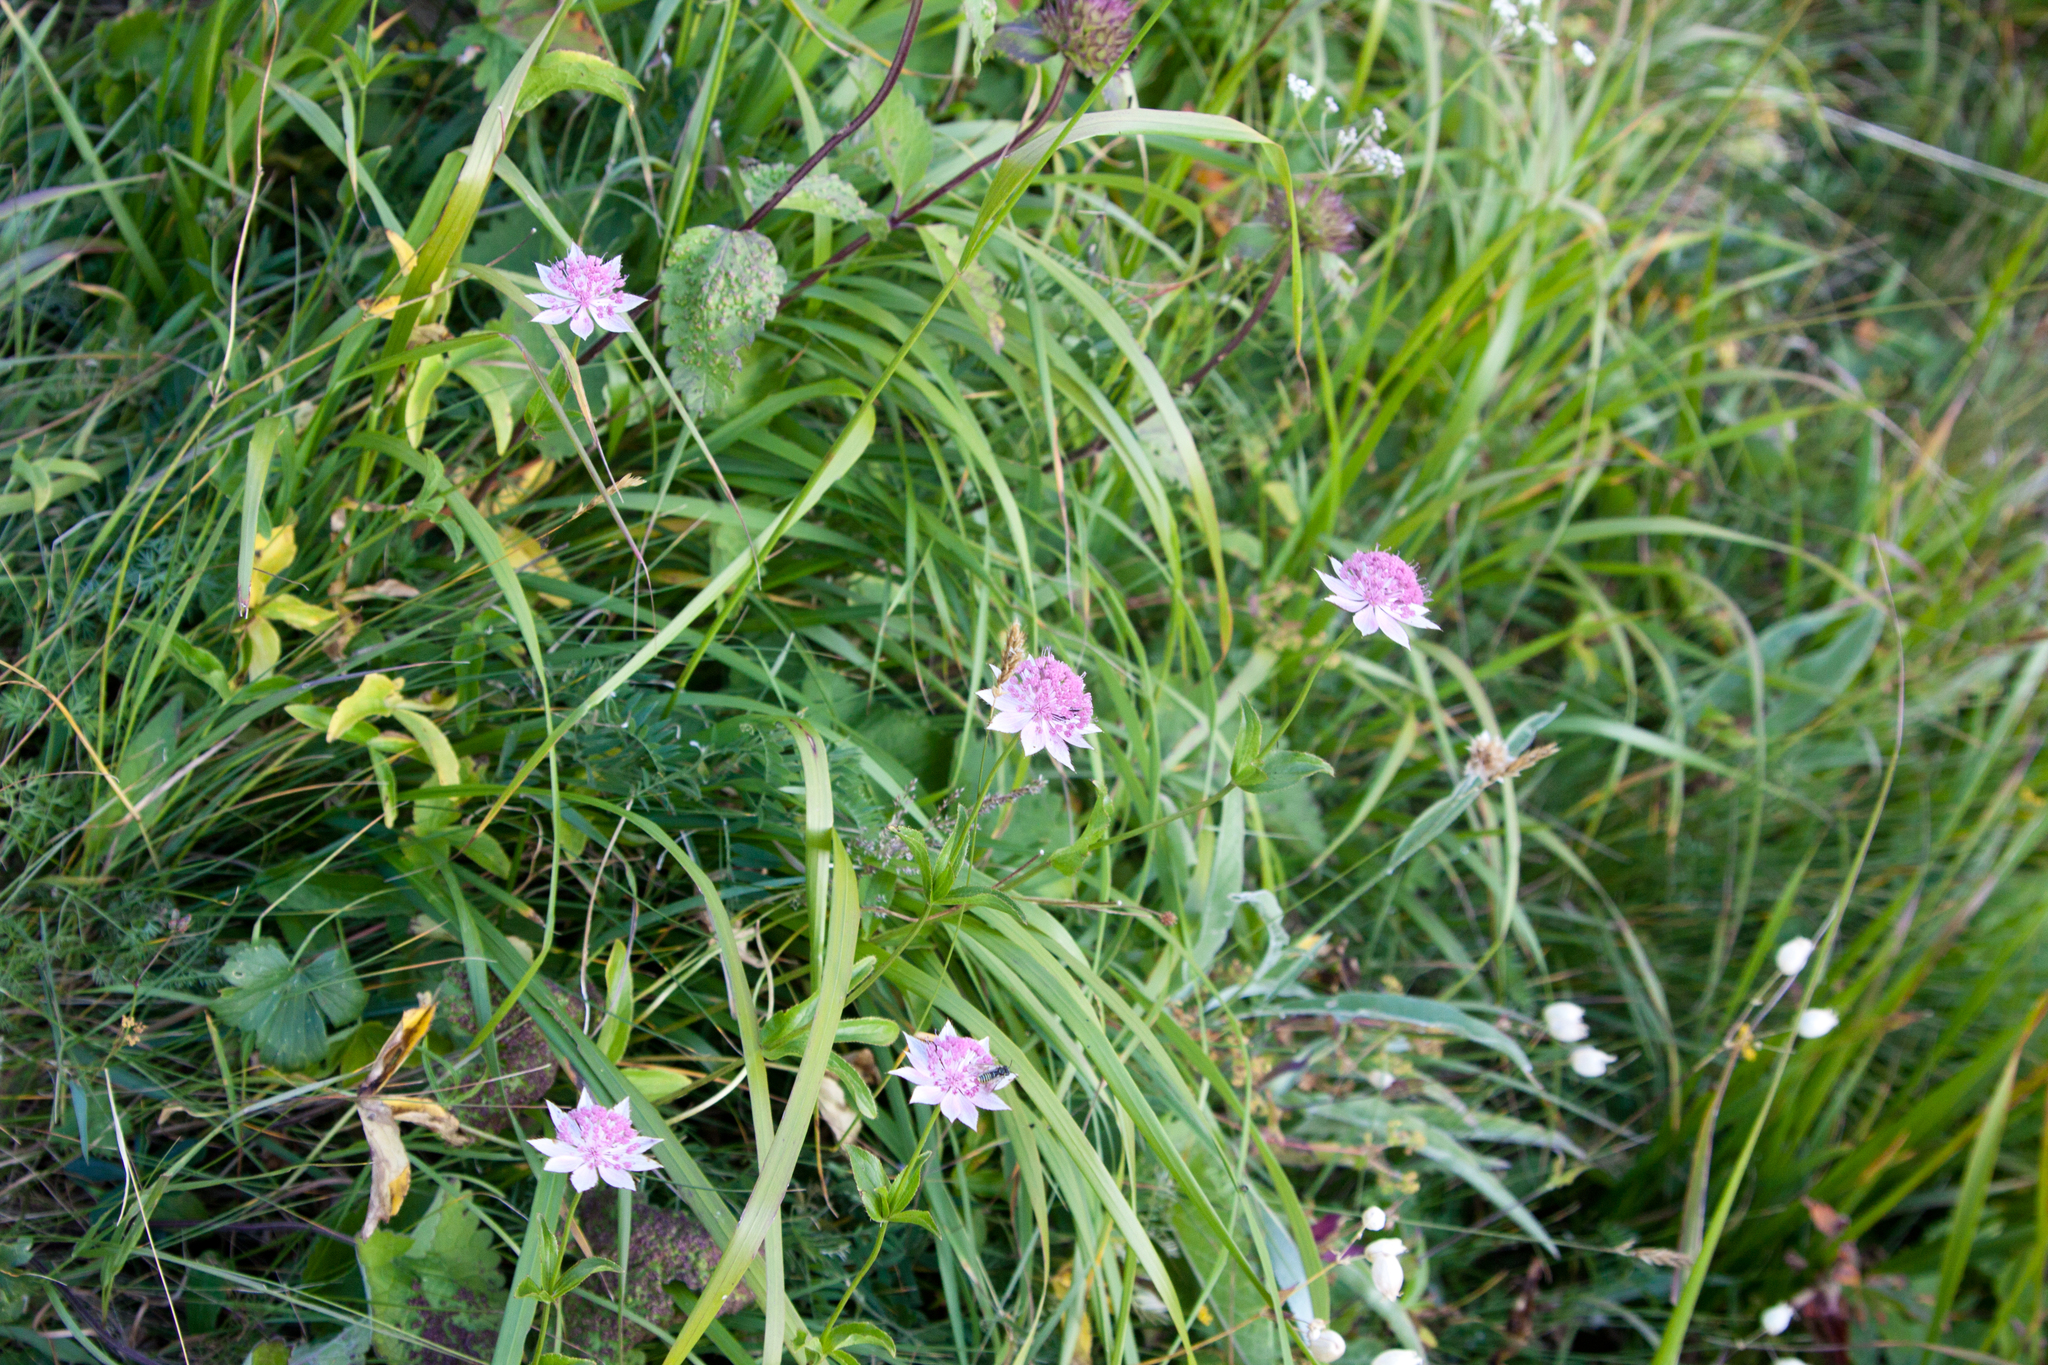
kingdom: Plantae
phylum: Tracheophyta
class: Magnoliopsida
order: Apiales
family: Apiaceae
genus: Astrantia
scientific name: Astrantia maxima
